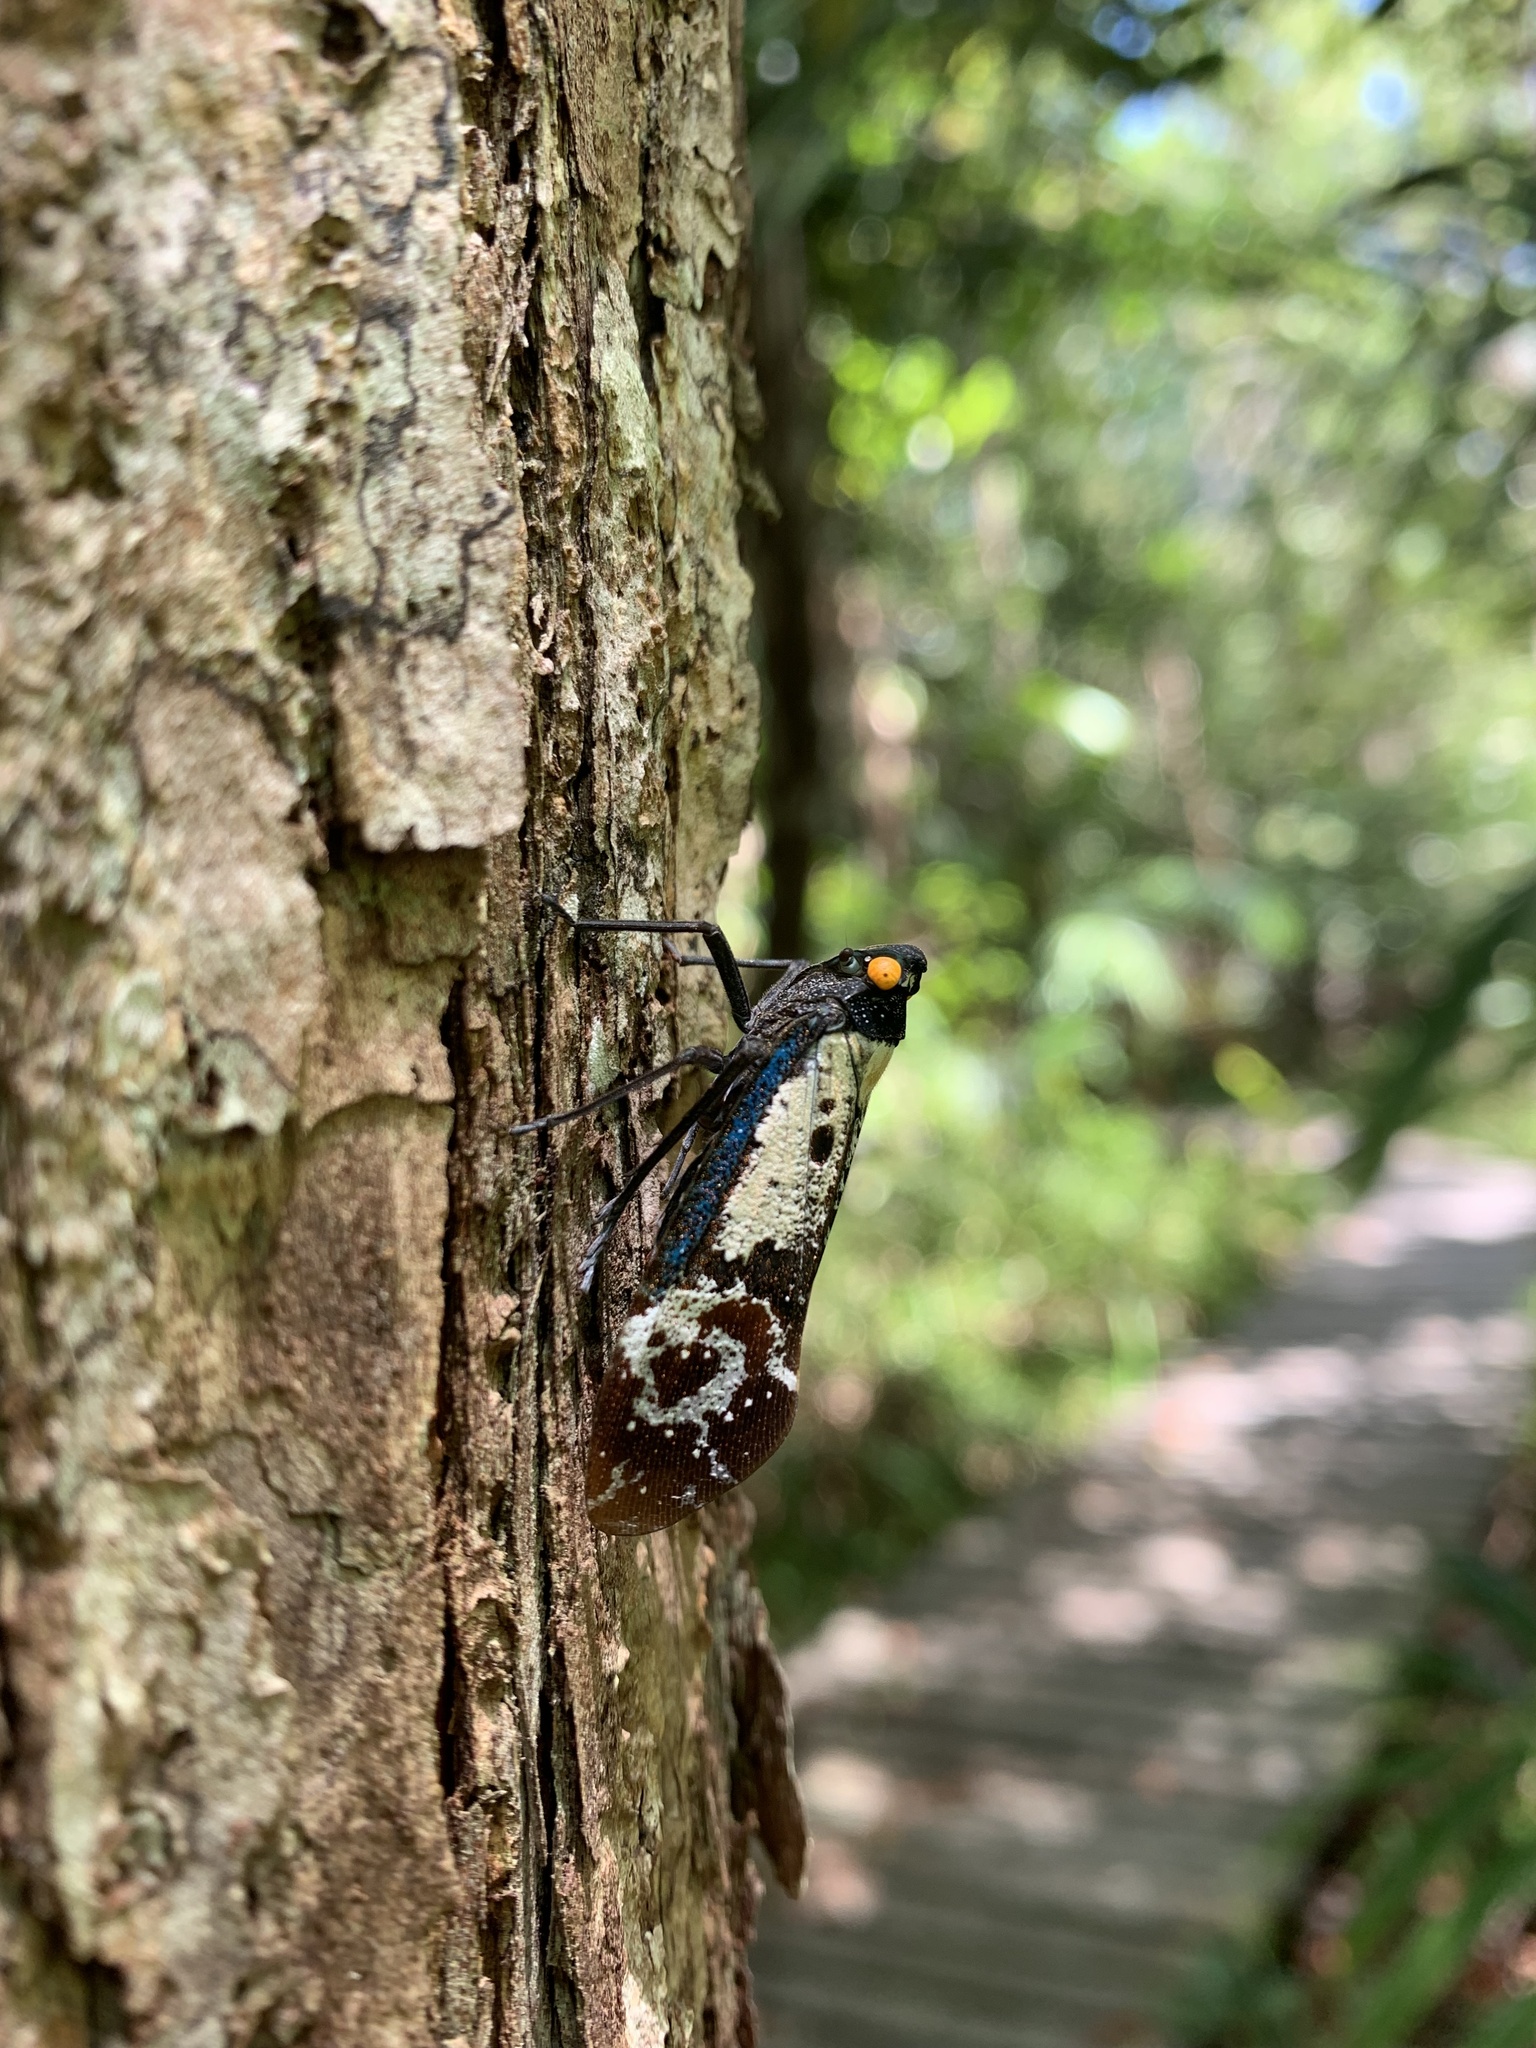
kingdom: Animalia
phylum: Arthropoda
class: Insecta
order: Hemiptera
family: Fulgoridae
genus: Penthicodes
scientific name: Penthicodes farinosa
